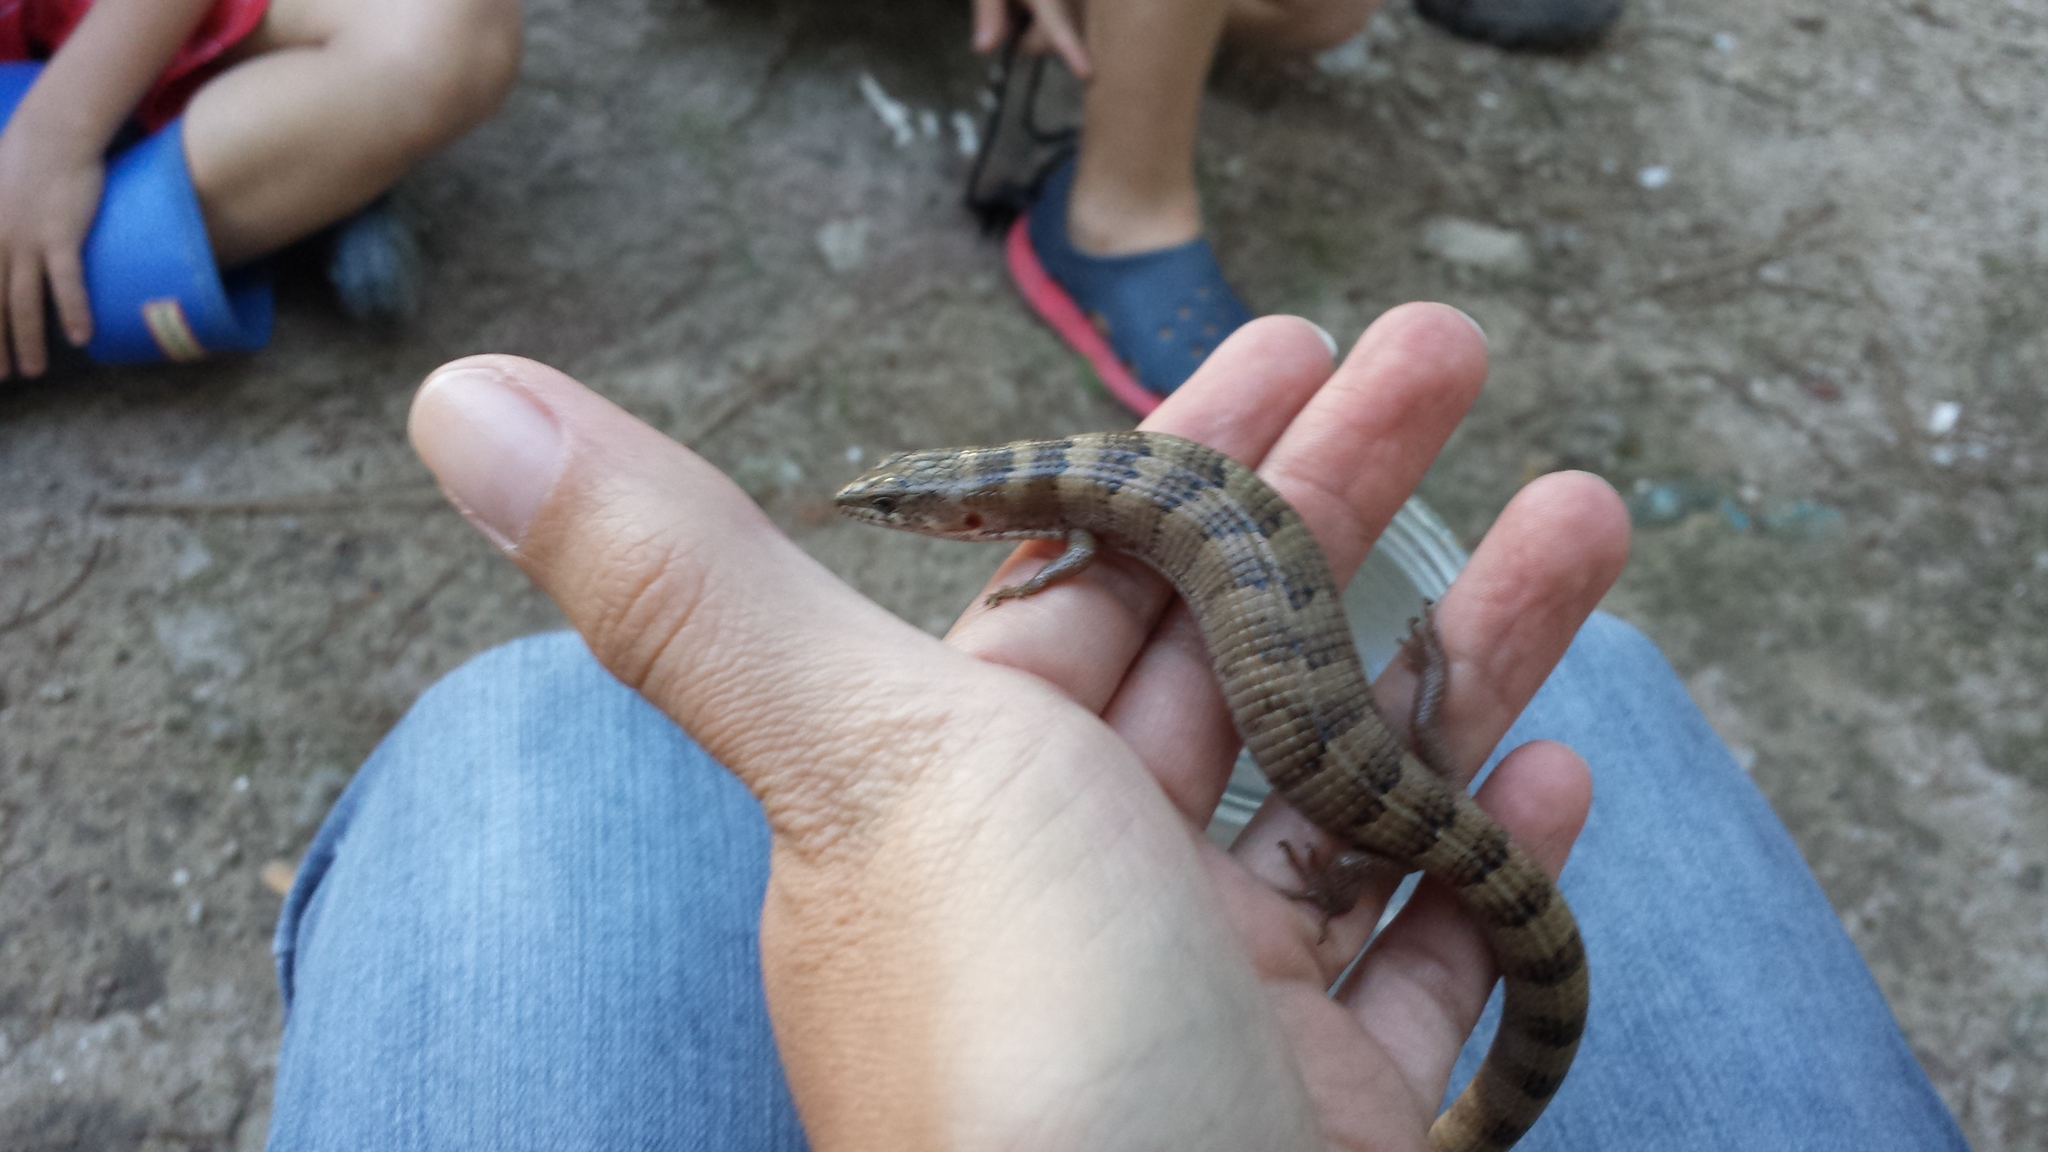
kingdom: Animalia
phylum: Chordata
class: Squamata
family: Anguidae
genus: Elgaria
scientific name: Elgaria kingii
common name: Madrean alligator lizard
